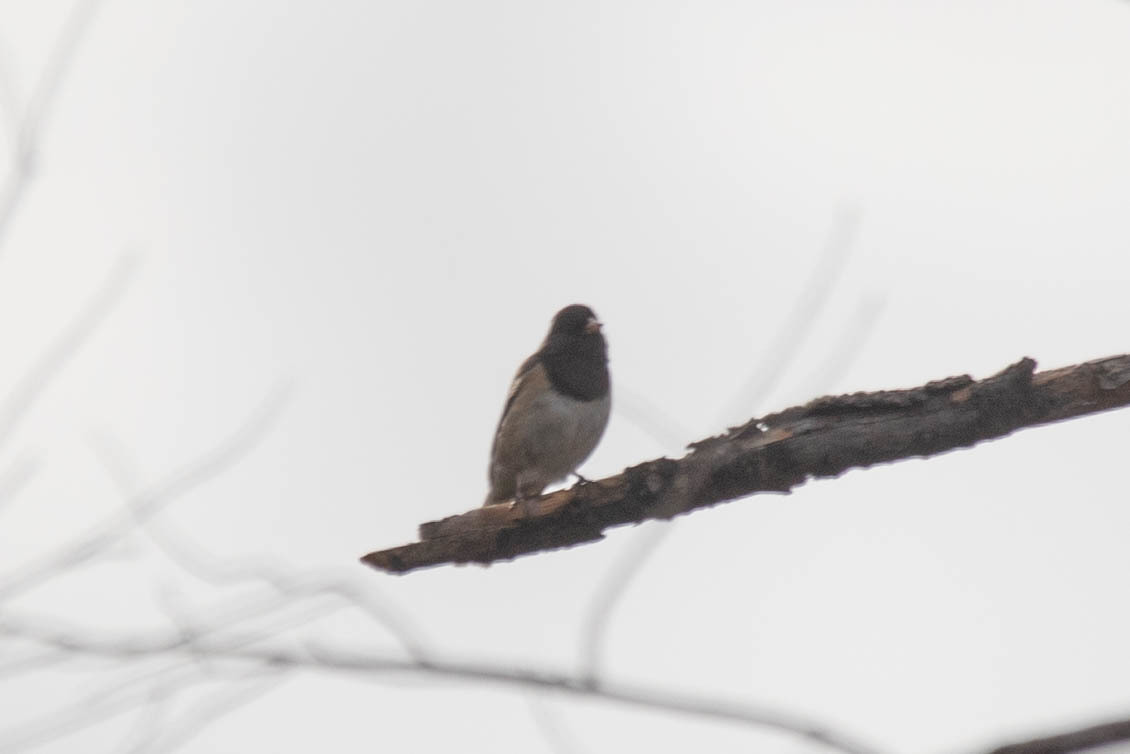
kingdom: Animalia
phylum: Chordata
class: Aves
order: Passeriformes
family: Passerellidae
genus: Junco
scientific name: Junco hyemalis
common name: Dark-eyed junco
